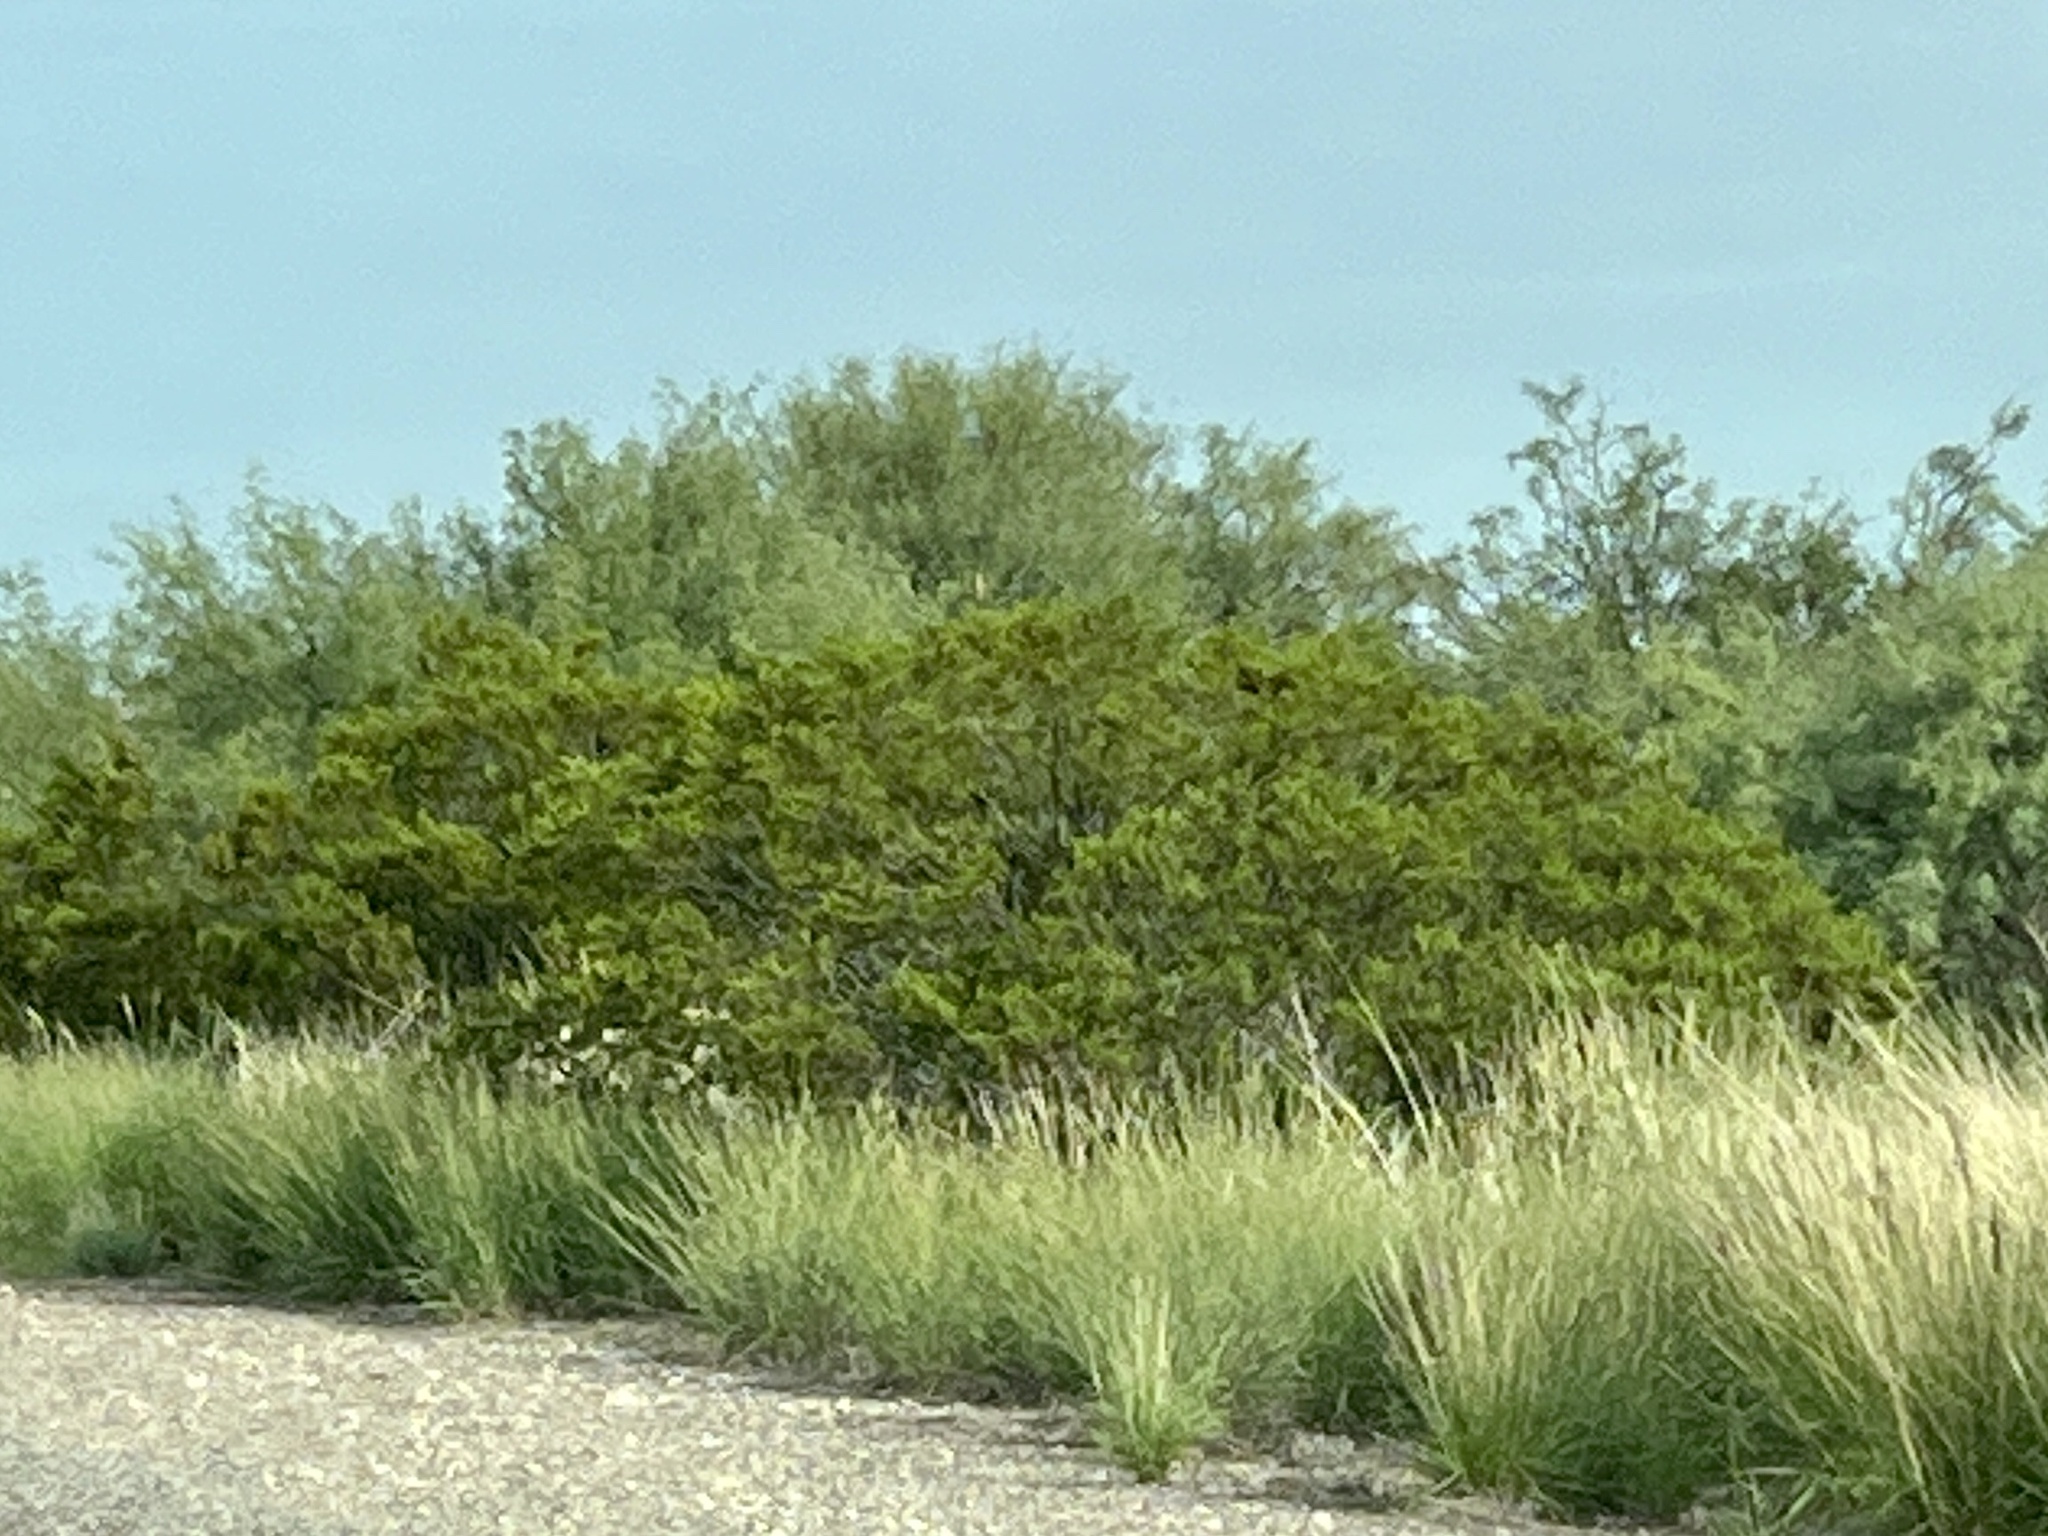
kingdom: Plantae
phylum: Tracheophyta
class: Magnoliopsida
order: Zygophyllales
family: Zygophyllaceae
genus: Larrea
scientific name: Larrea tridentata
